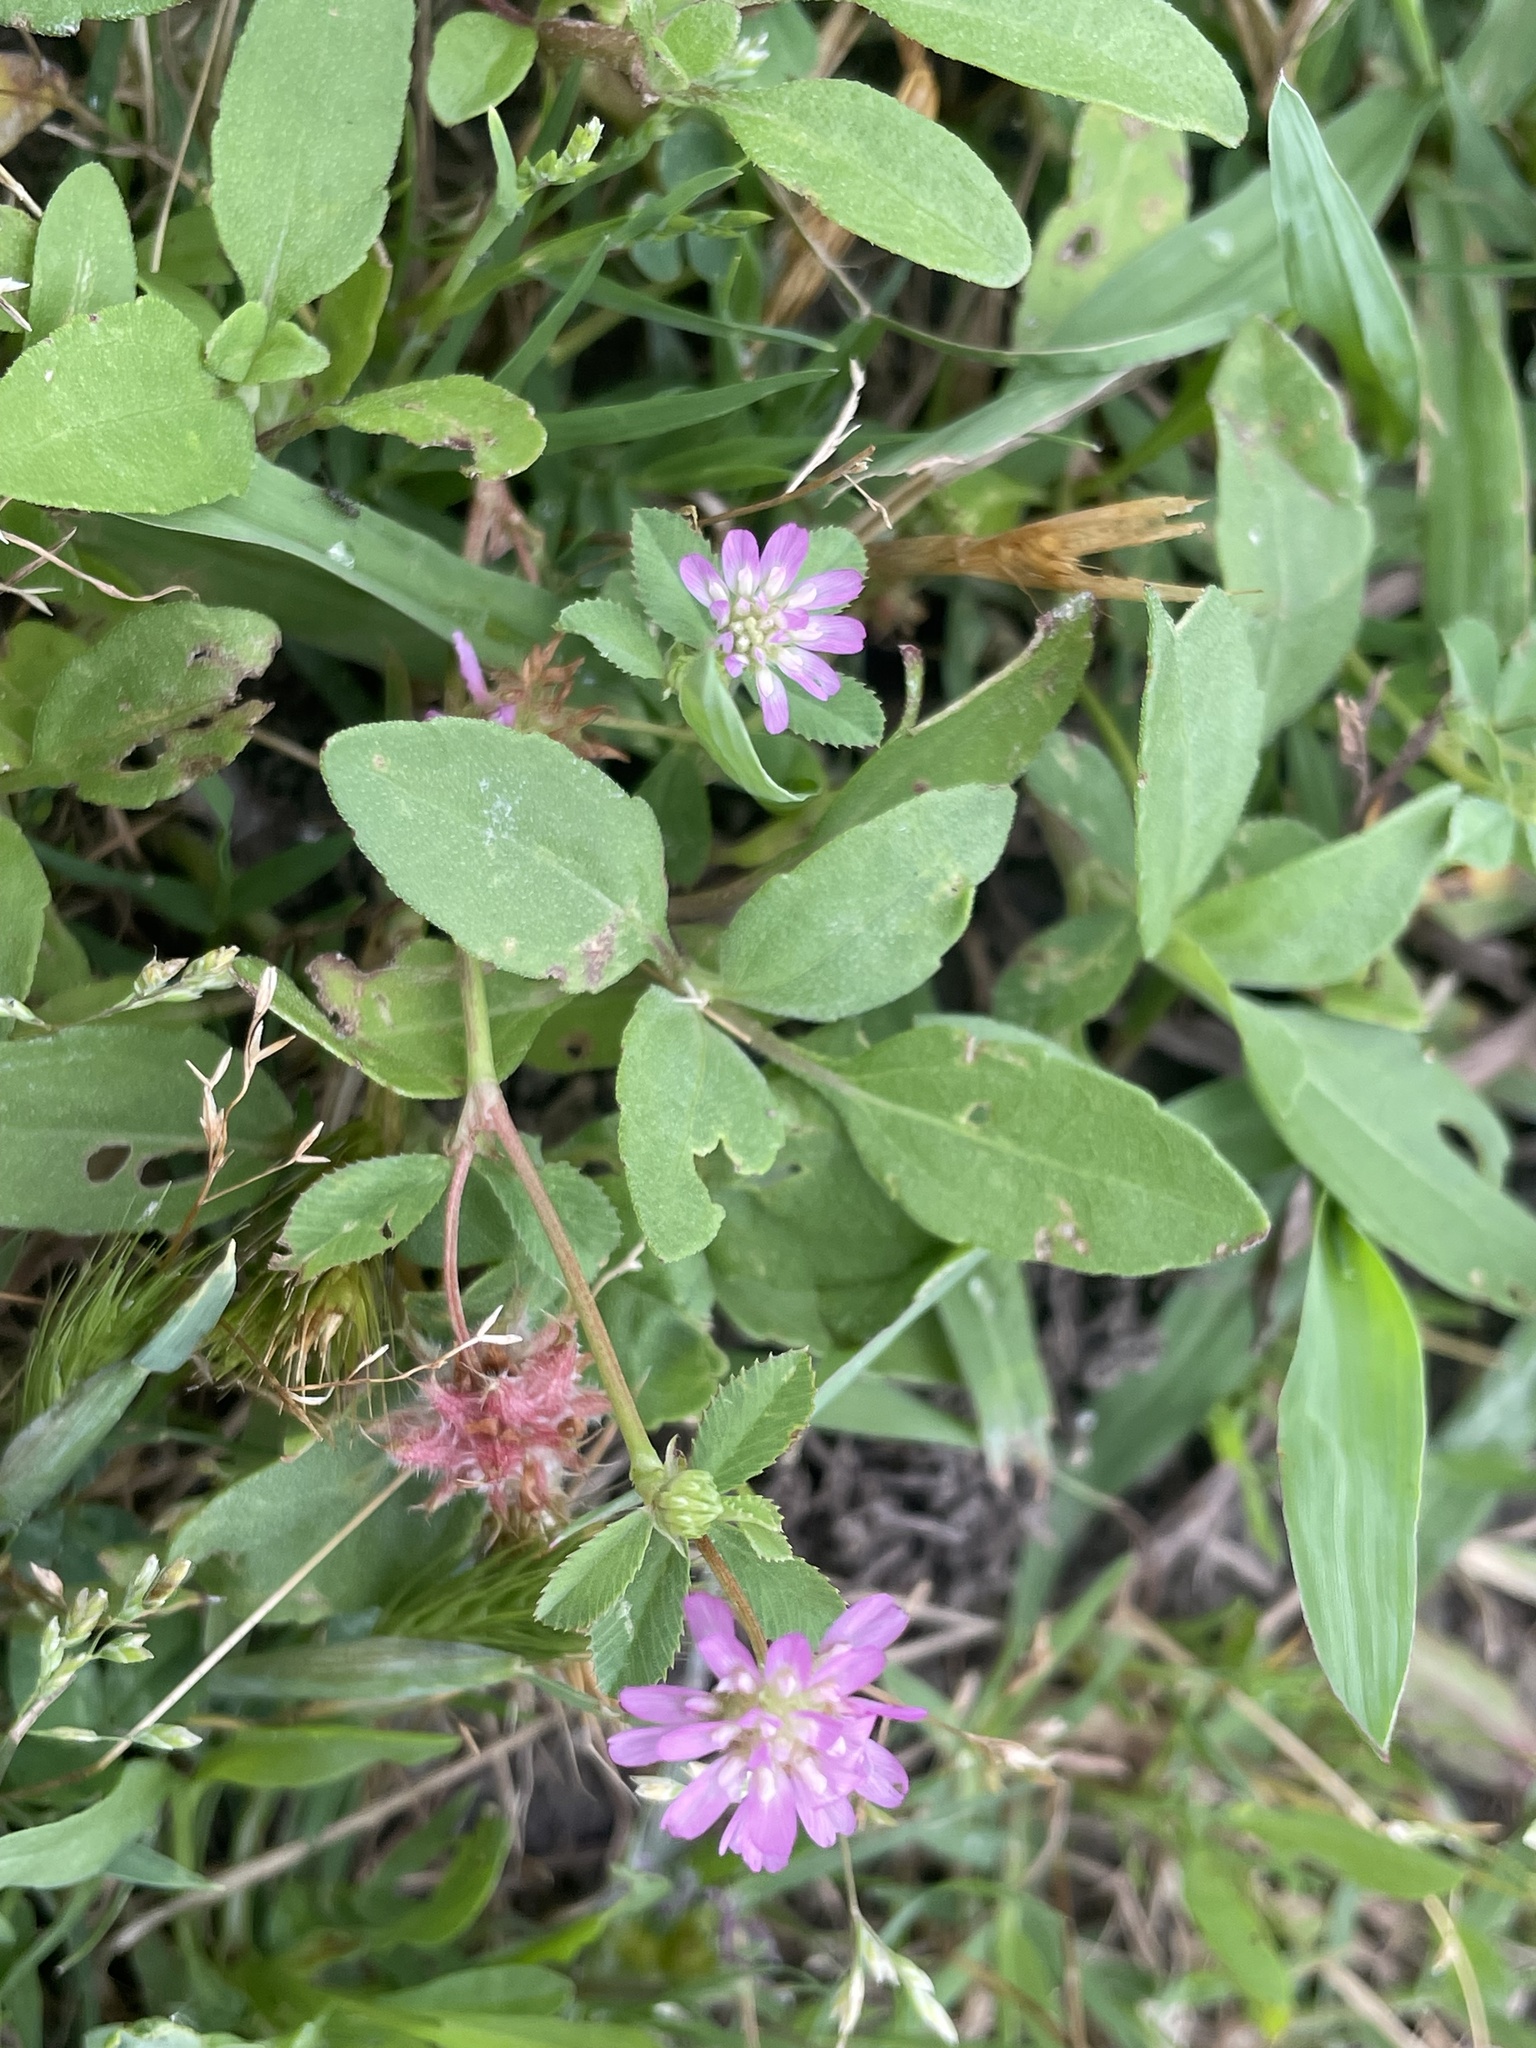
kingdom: Plantae
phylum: Tracheophyta
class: Magnoliopsida
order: Fabales
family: Fabaceae
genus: Trifolium
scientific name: Trifolium resupinatum
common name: Reversed clover
